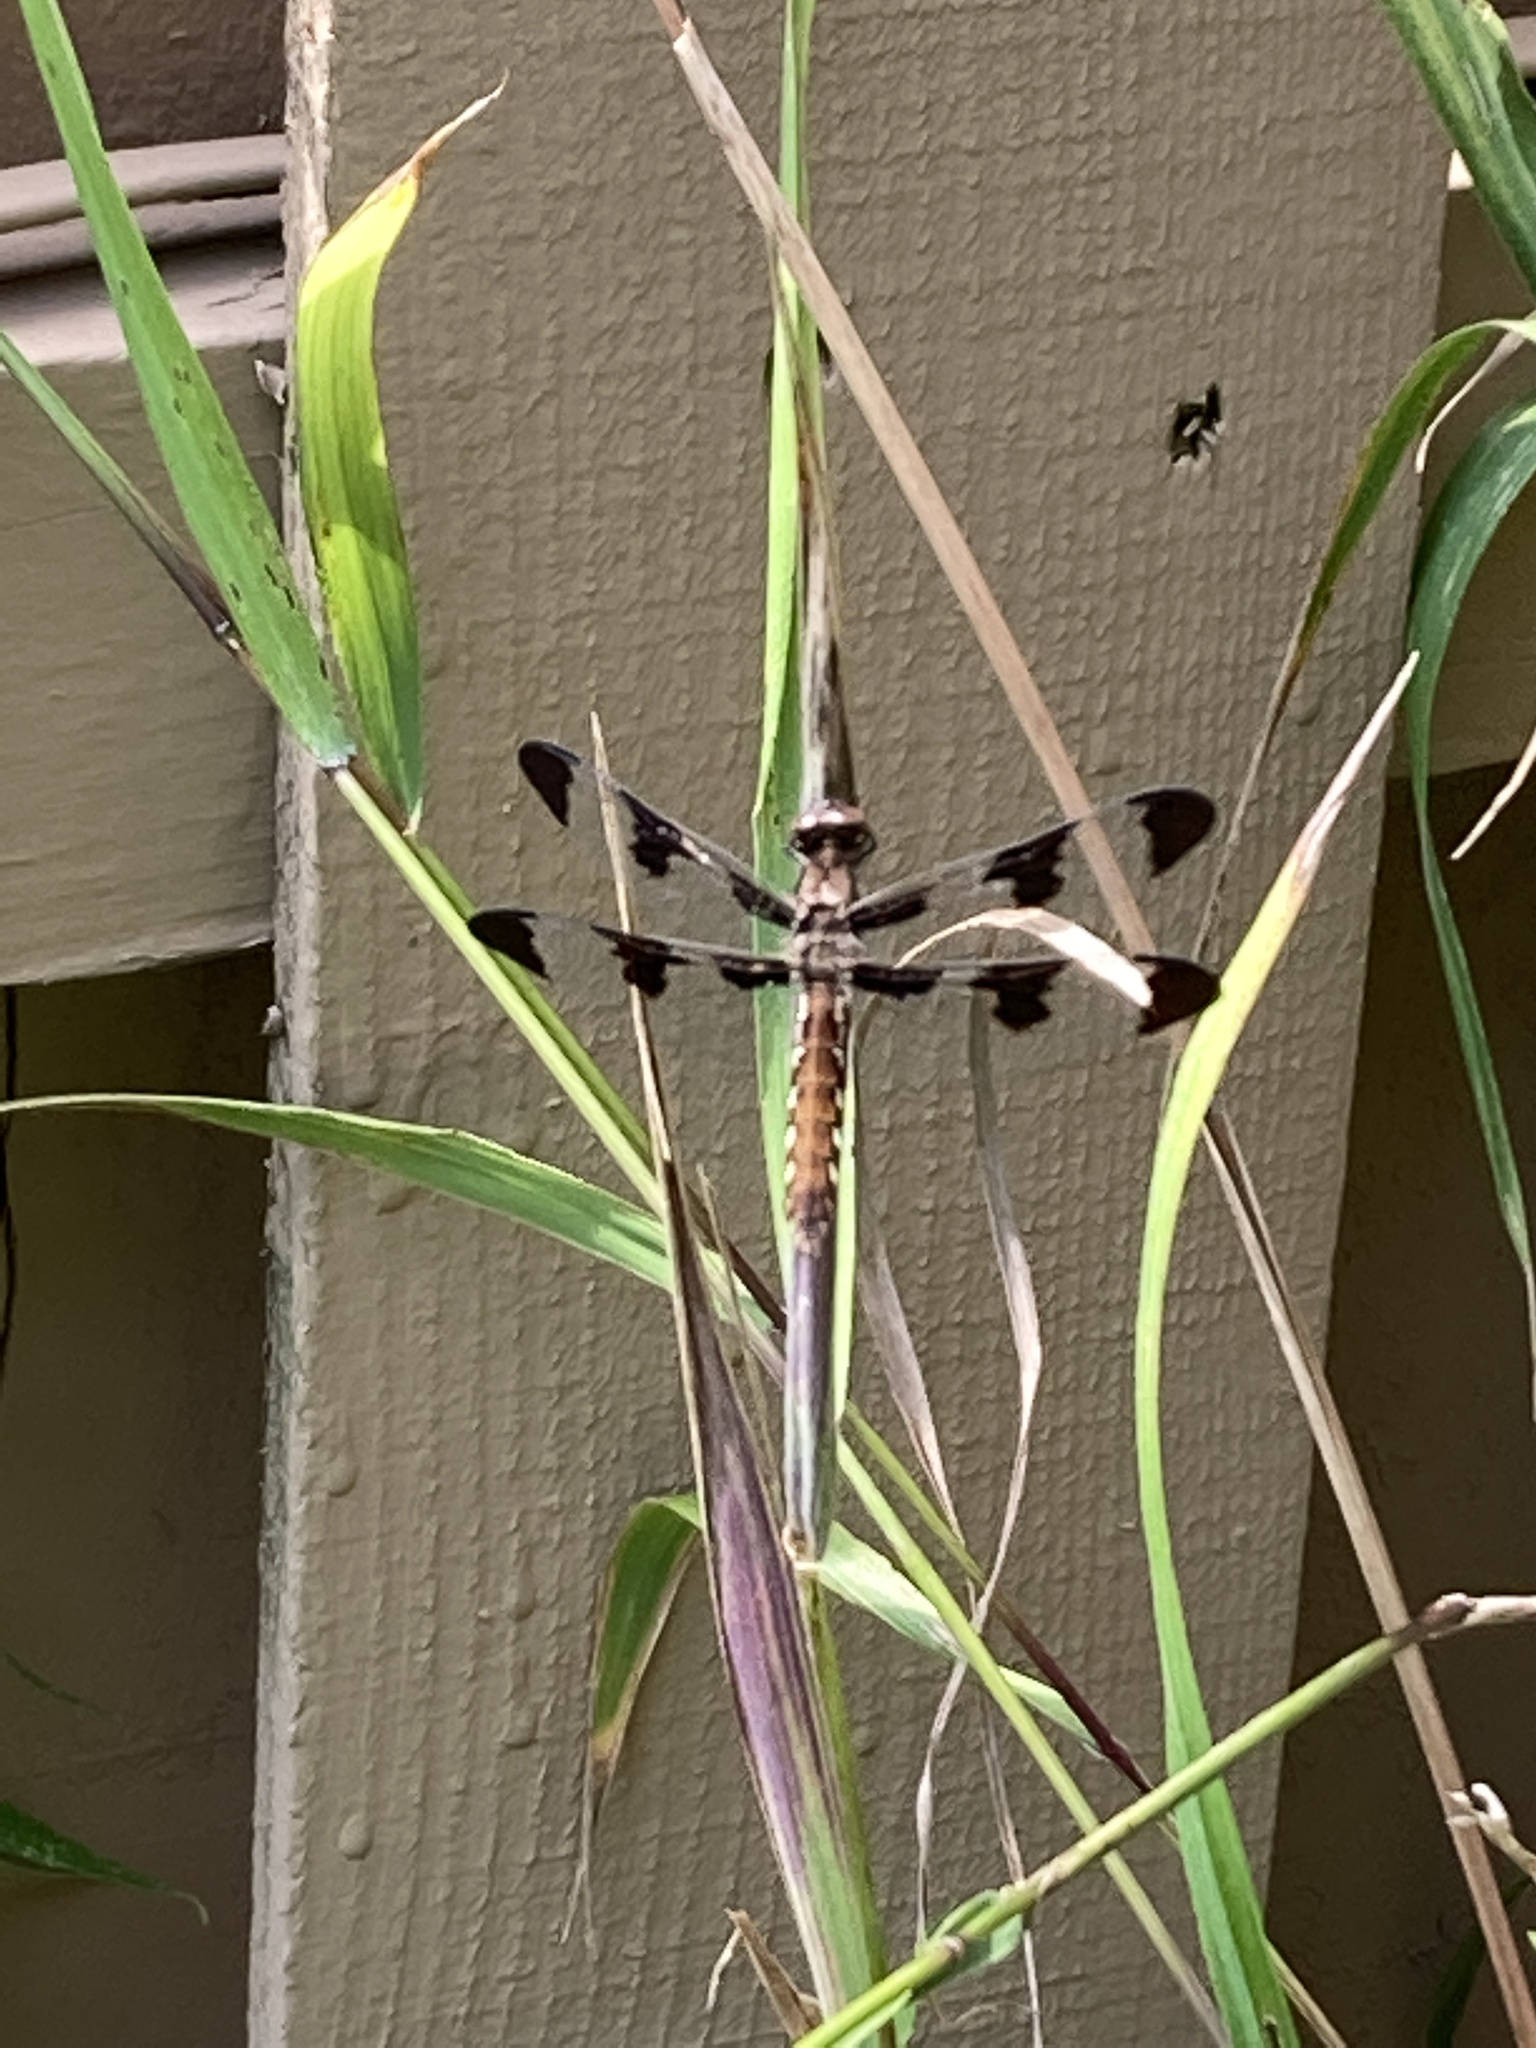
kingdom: Animalia
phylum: Arthropoda
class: Insecta
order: Odonata
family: Libellulidae
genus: Plathemis
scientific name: Plathemis lydia
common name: Common whitetail
